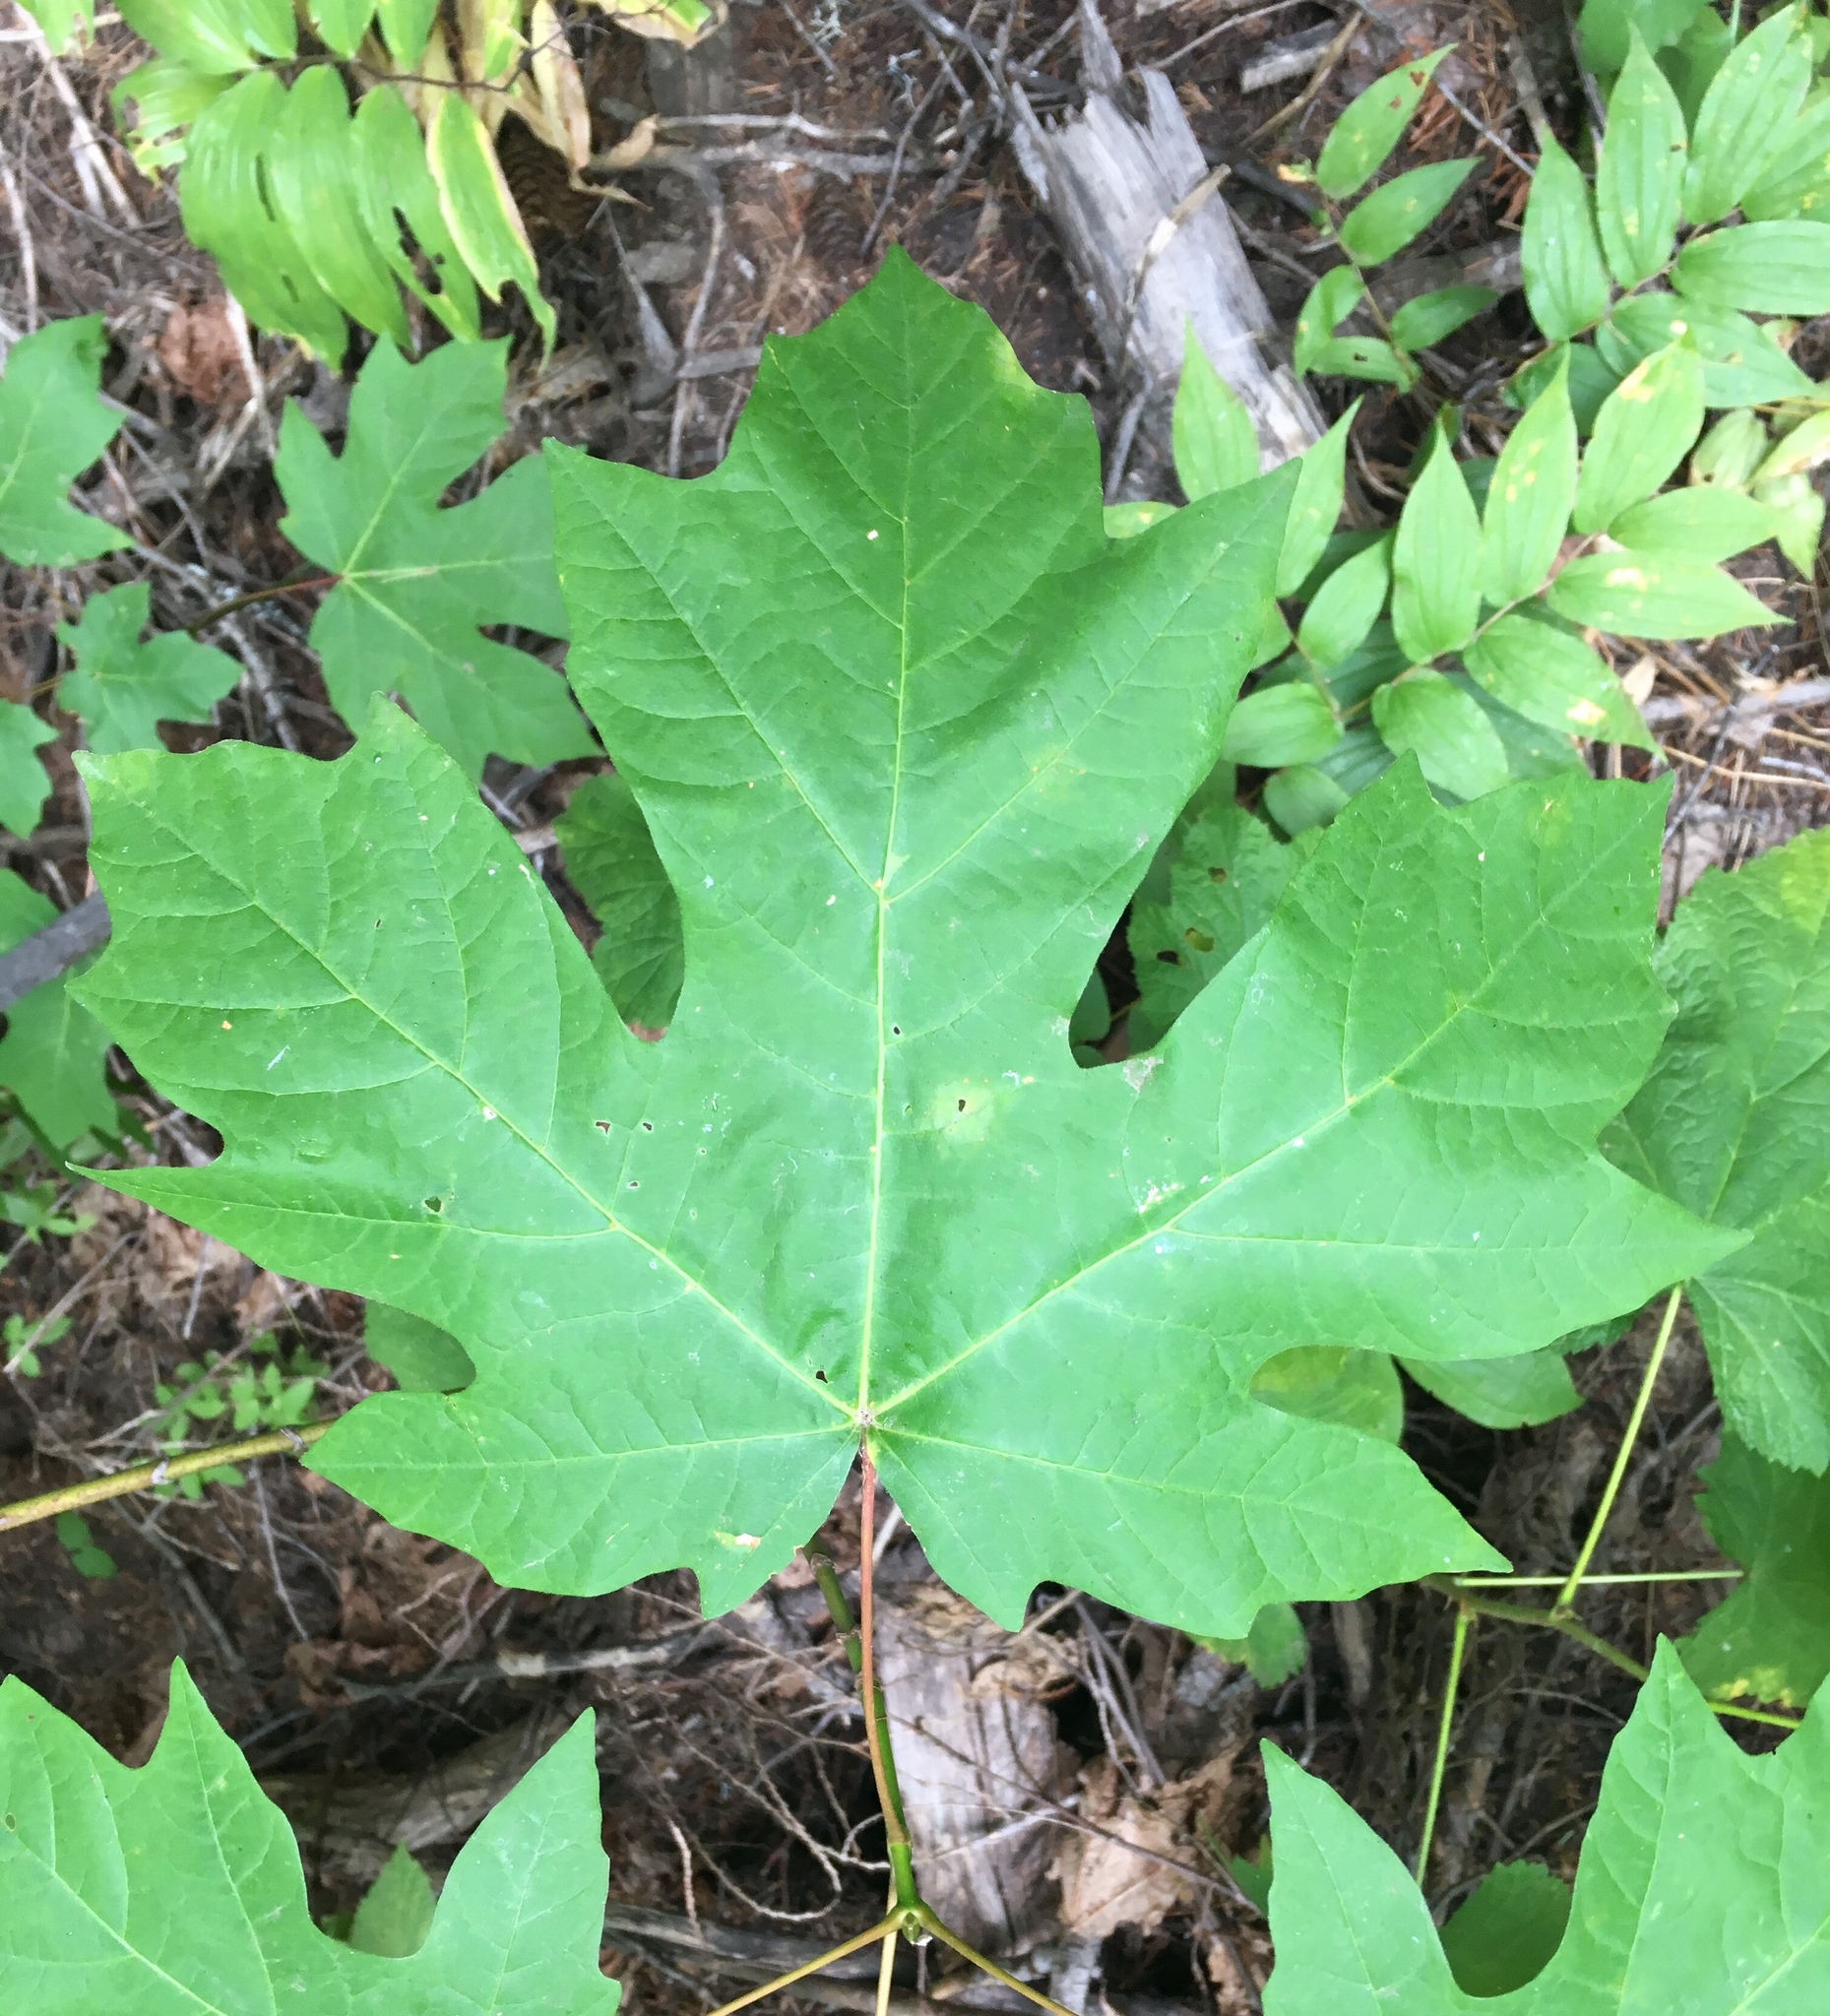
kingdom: Plantae
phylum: Tracheophyta
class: Magnoliopsida
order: Sapindales
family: Sapindaceae
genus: Acer
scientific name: Acer macrophyllum
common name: Oregon maple
